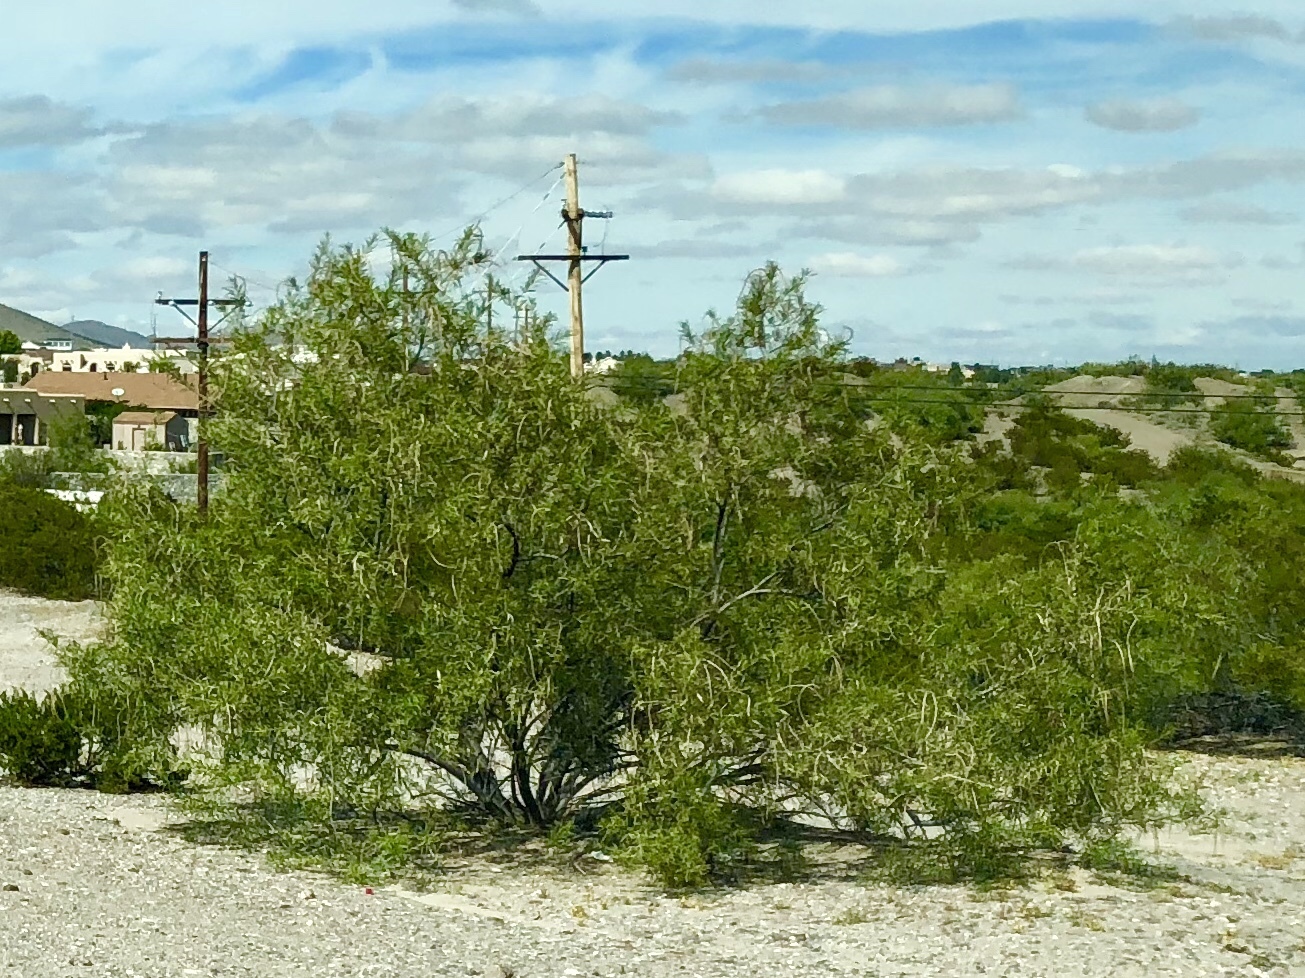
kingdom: Plantae
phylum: Tracheophyta
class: Magnoliopsida
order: Lamiales
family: Bignoniaceae
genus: Chilopsis
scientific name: Chilopsis linearis
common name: Desert-willow
